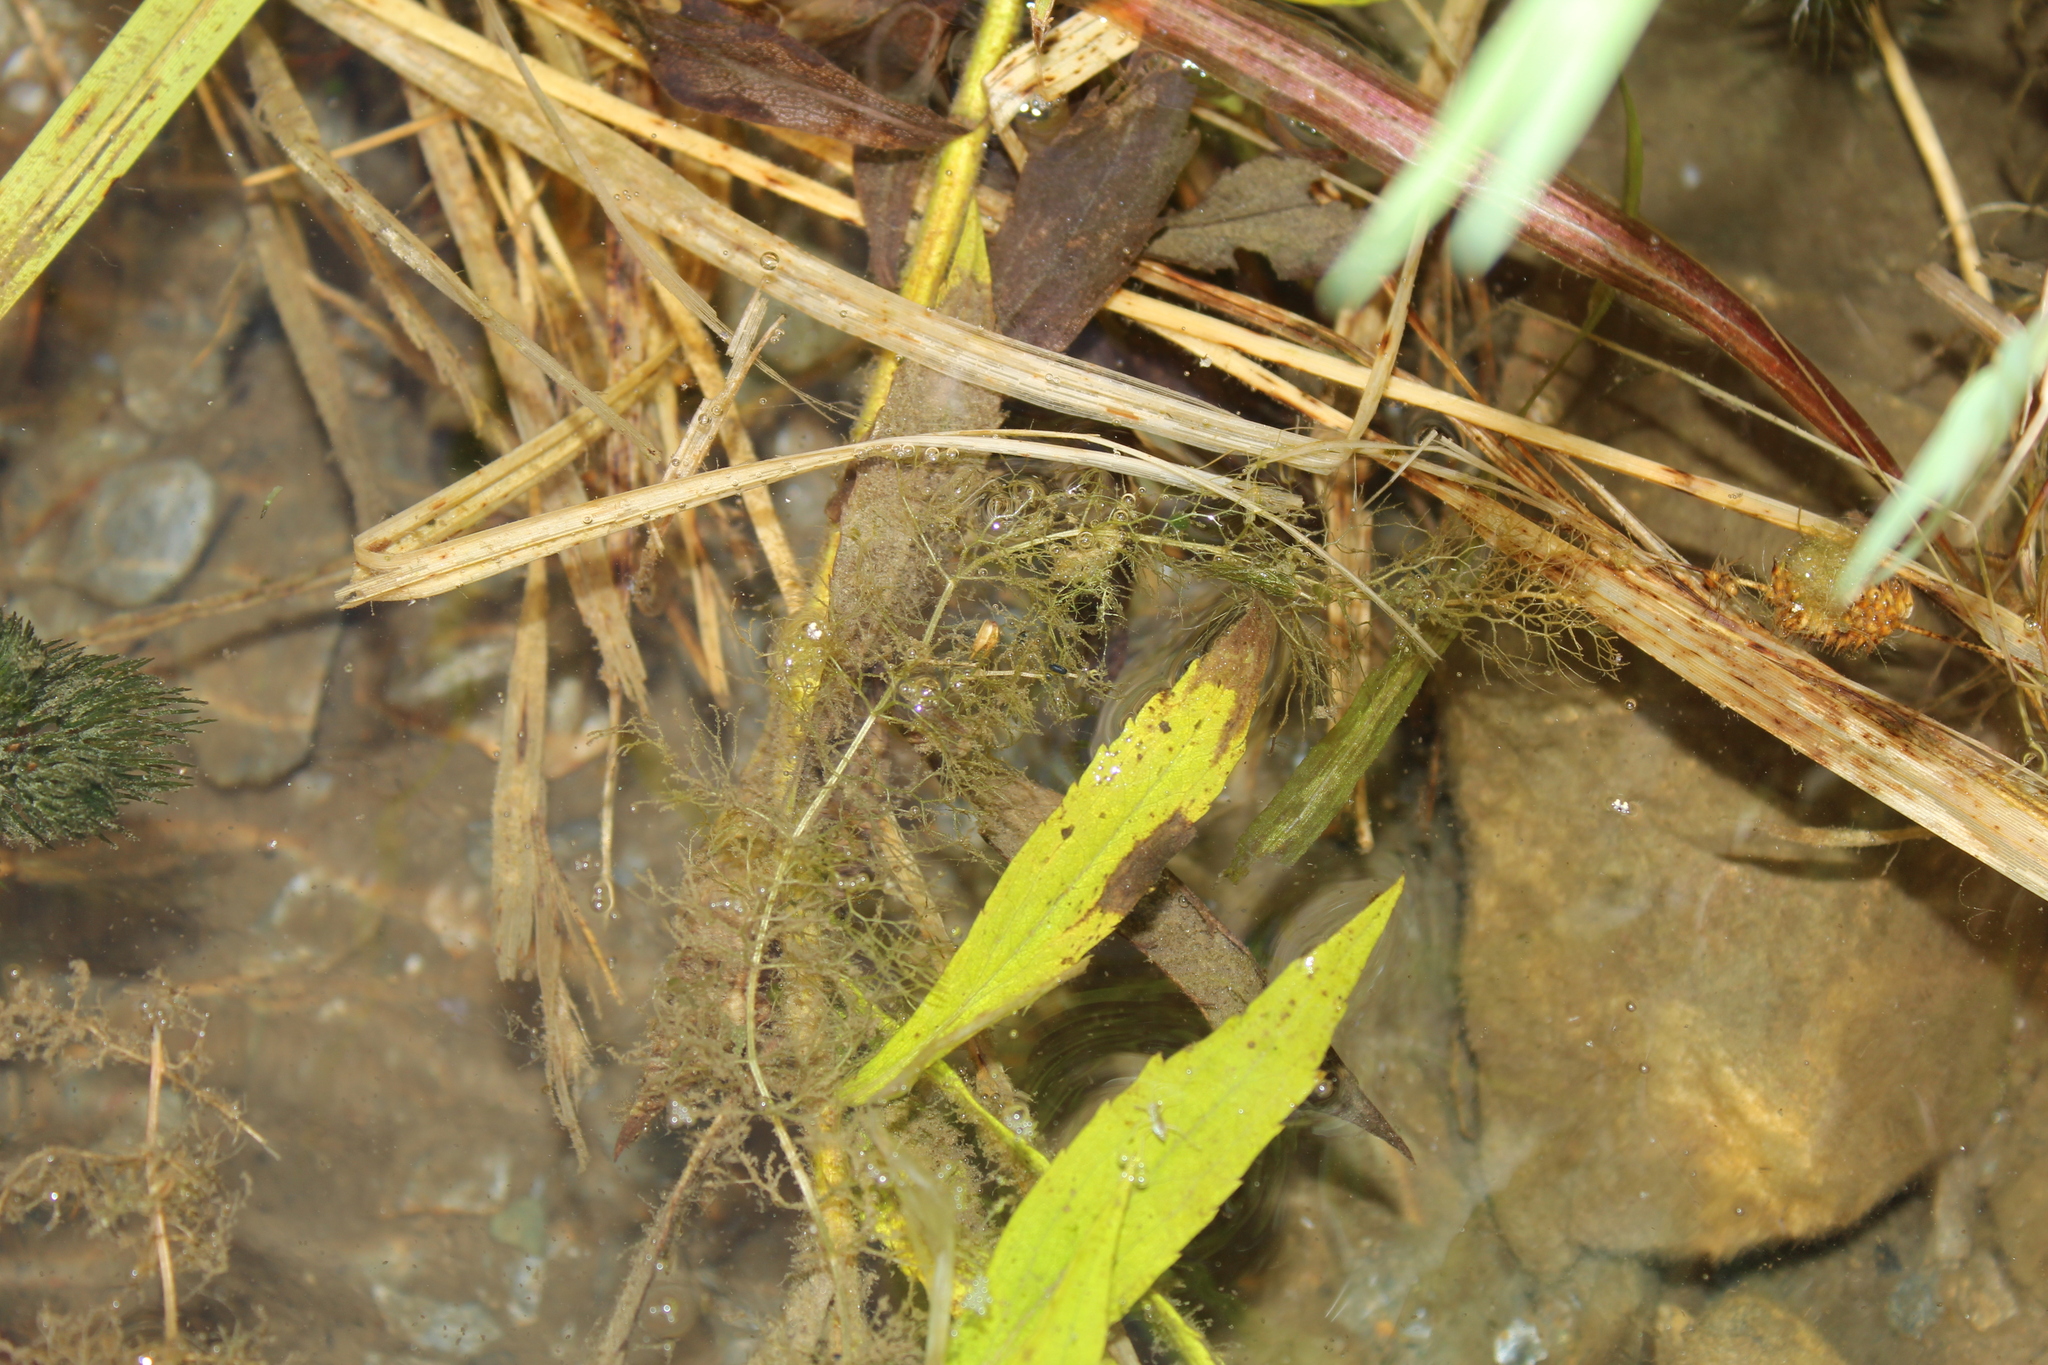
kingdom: Plantae
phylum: Tracheophyta
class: Magnoliopsida
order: Lamiales
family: Lentibulariaceae
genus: Utricularia
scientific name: Utricularia purpurea
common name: Eastern purple bladderwort
